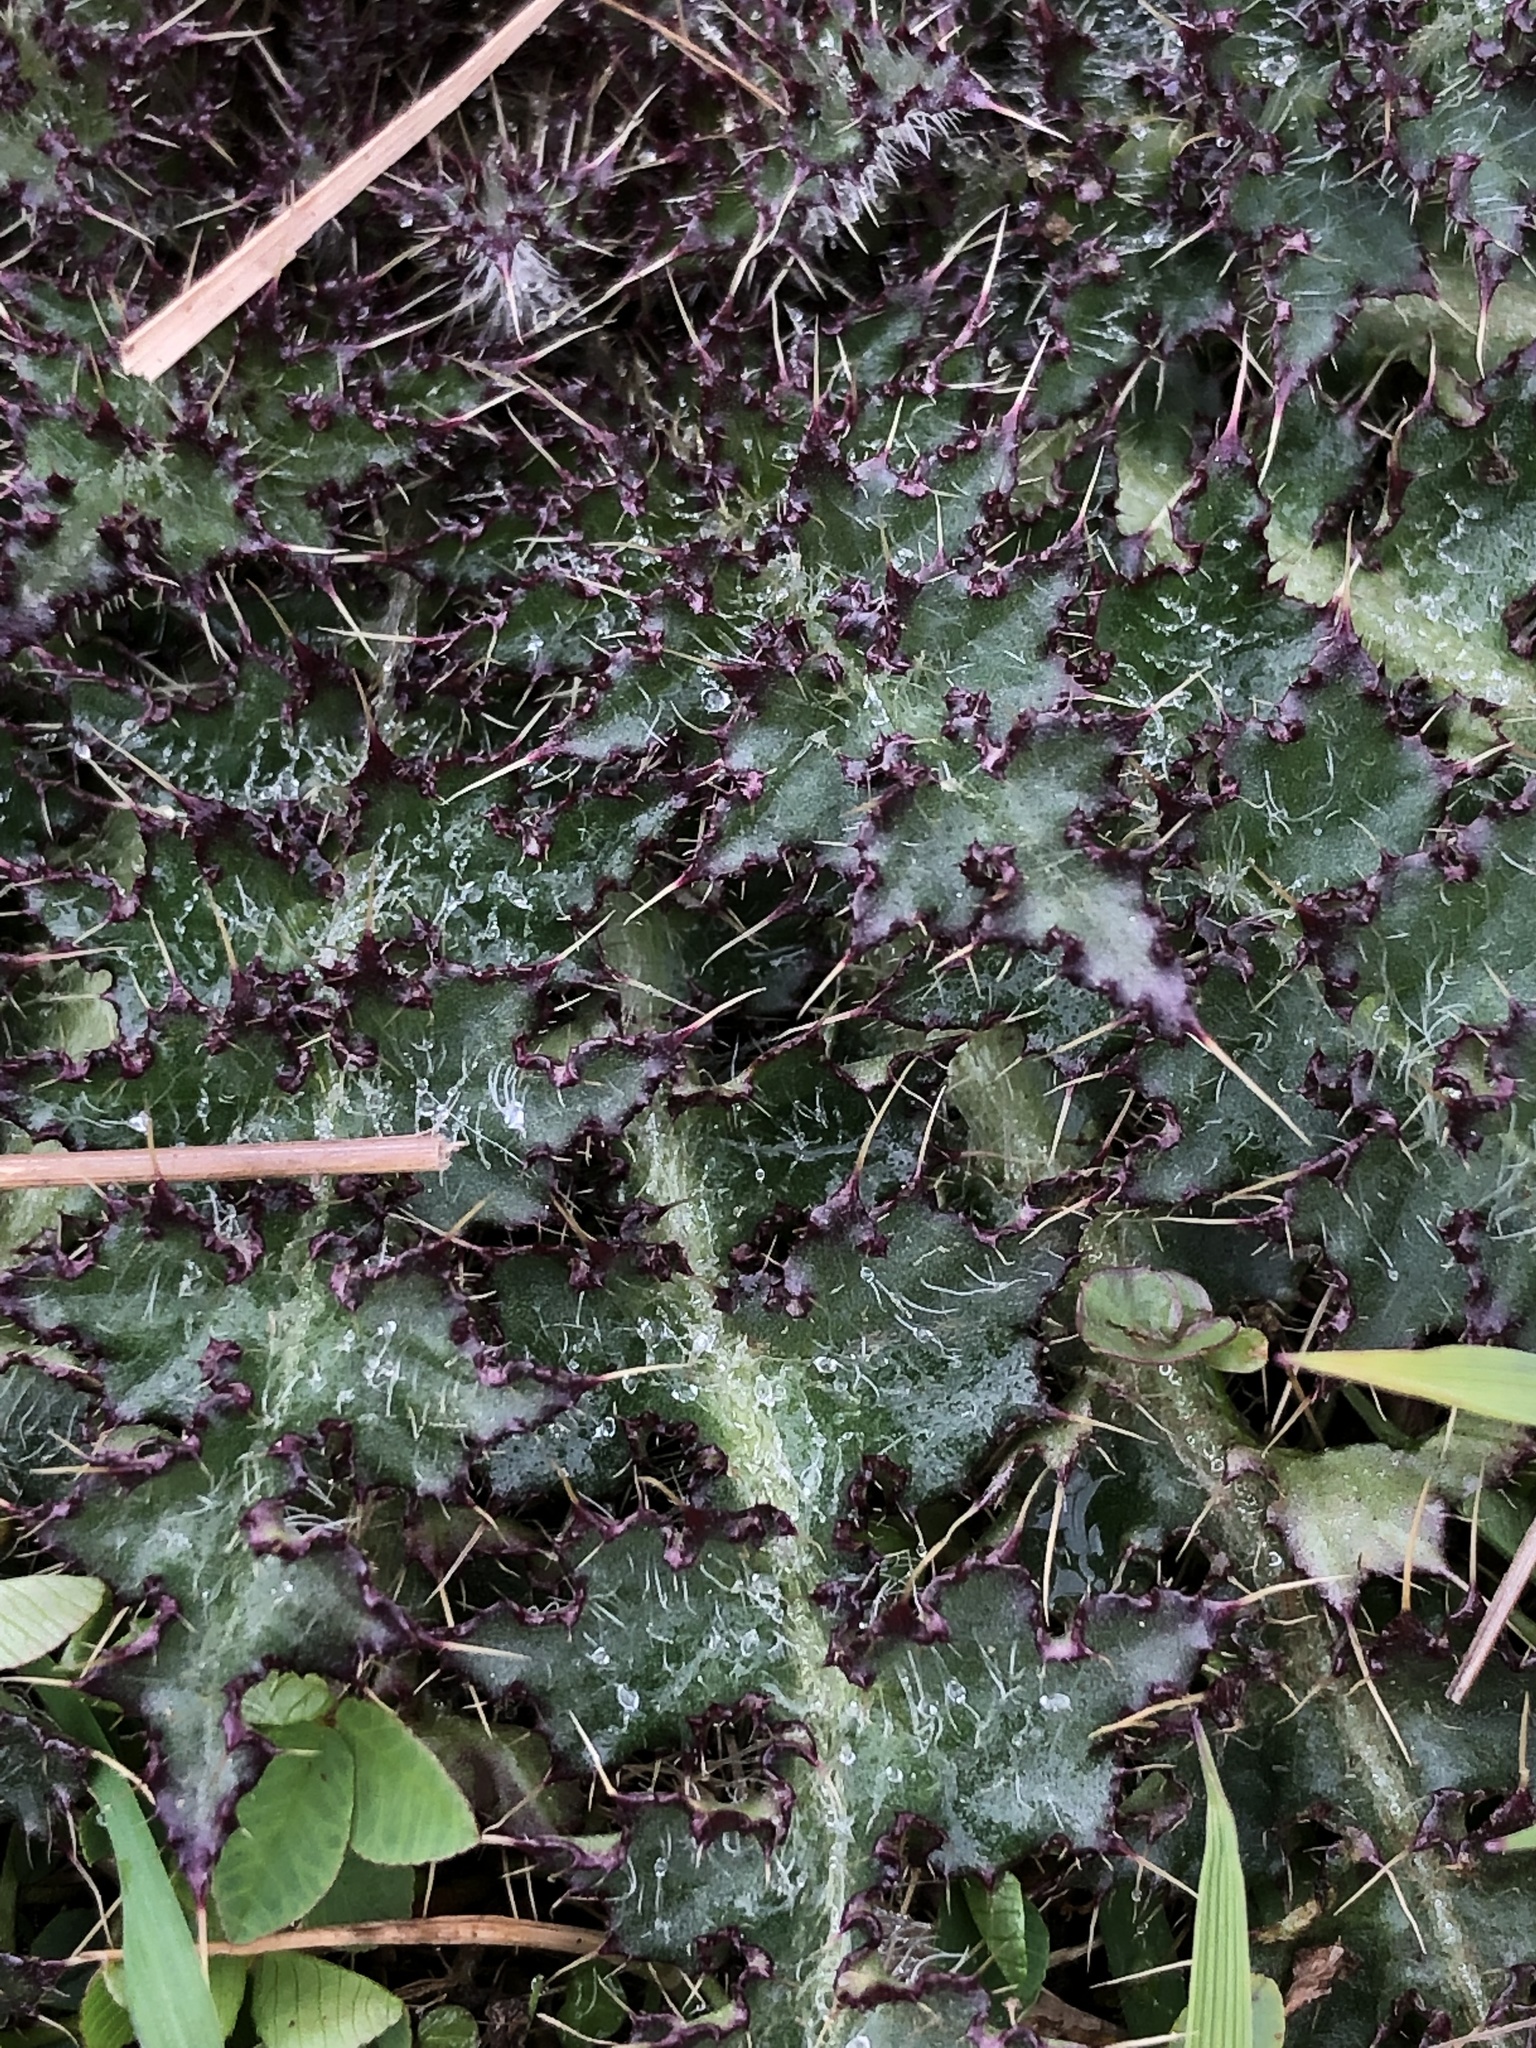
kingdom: Plantae
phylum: Tracheophyta
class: Magnoliopsida
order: Asterales
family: Asteraceae
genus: Cirsium
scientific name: Cirsium palustre
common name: Marsh thistle
